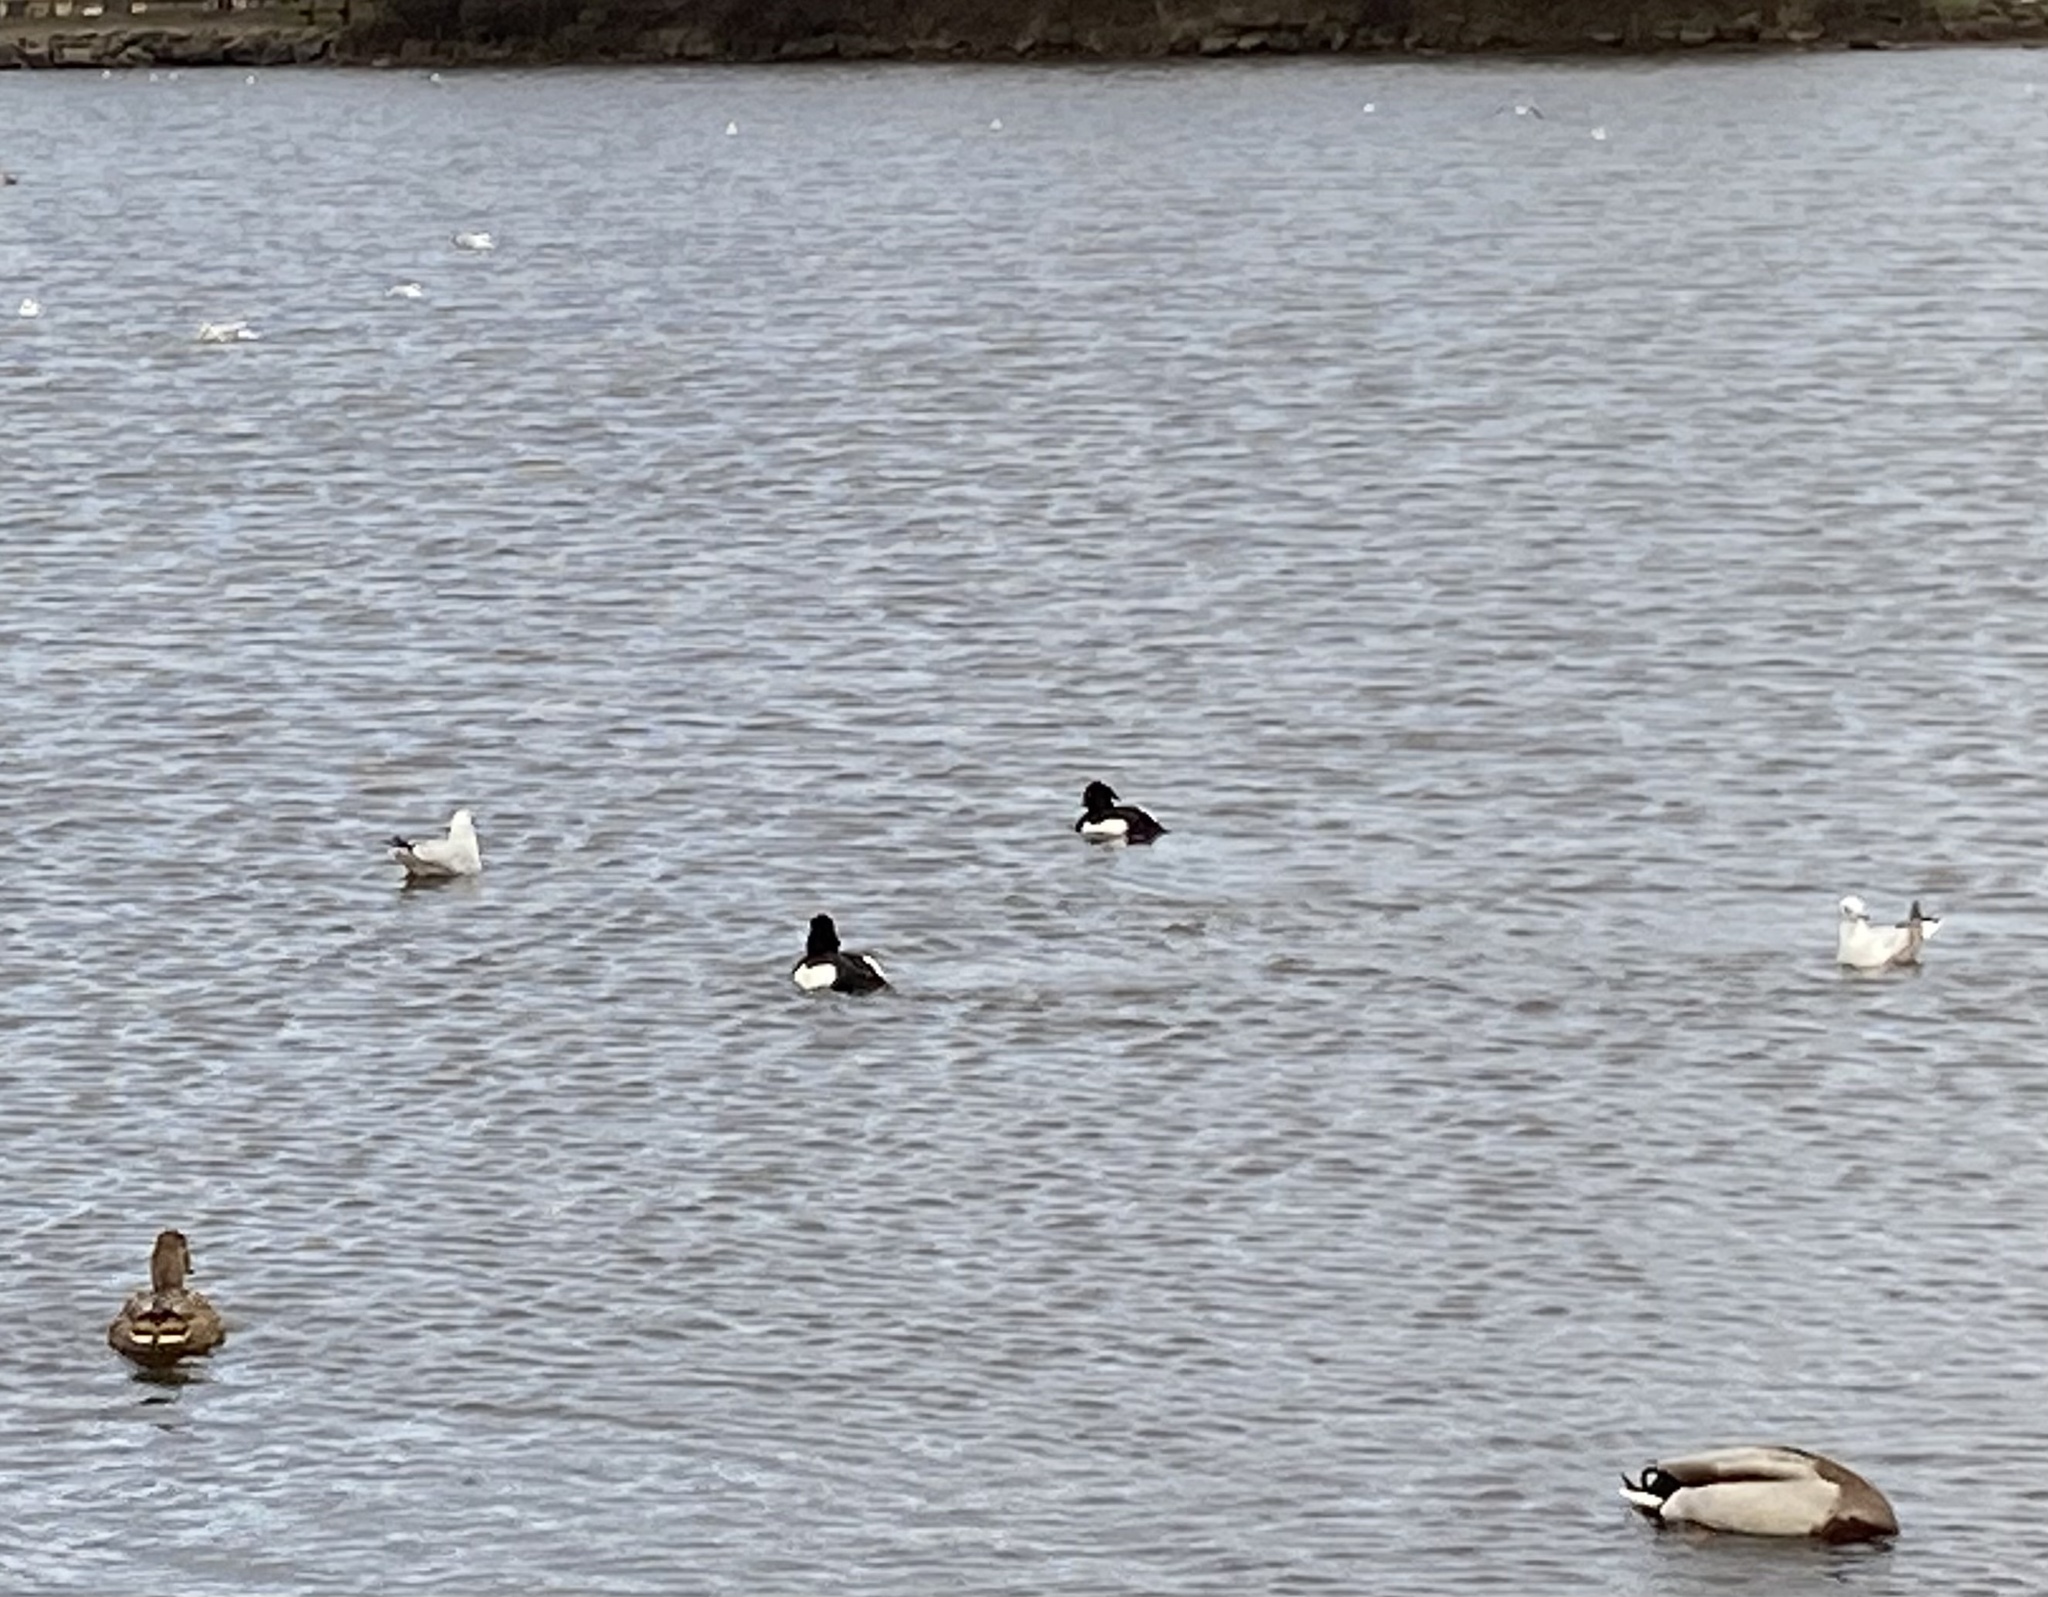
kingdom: Animalia
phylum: Chordata
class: Aves
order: Anseriformes
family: Anatidae
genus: Aythya
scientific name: Aythya fuligula
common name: Tufted duck
